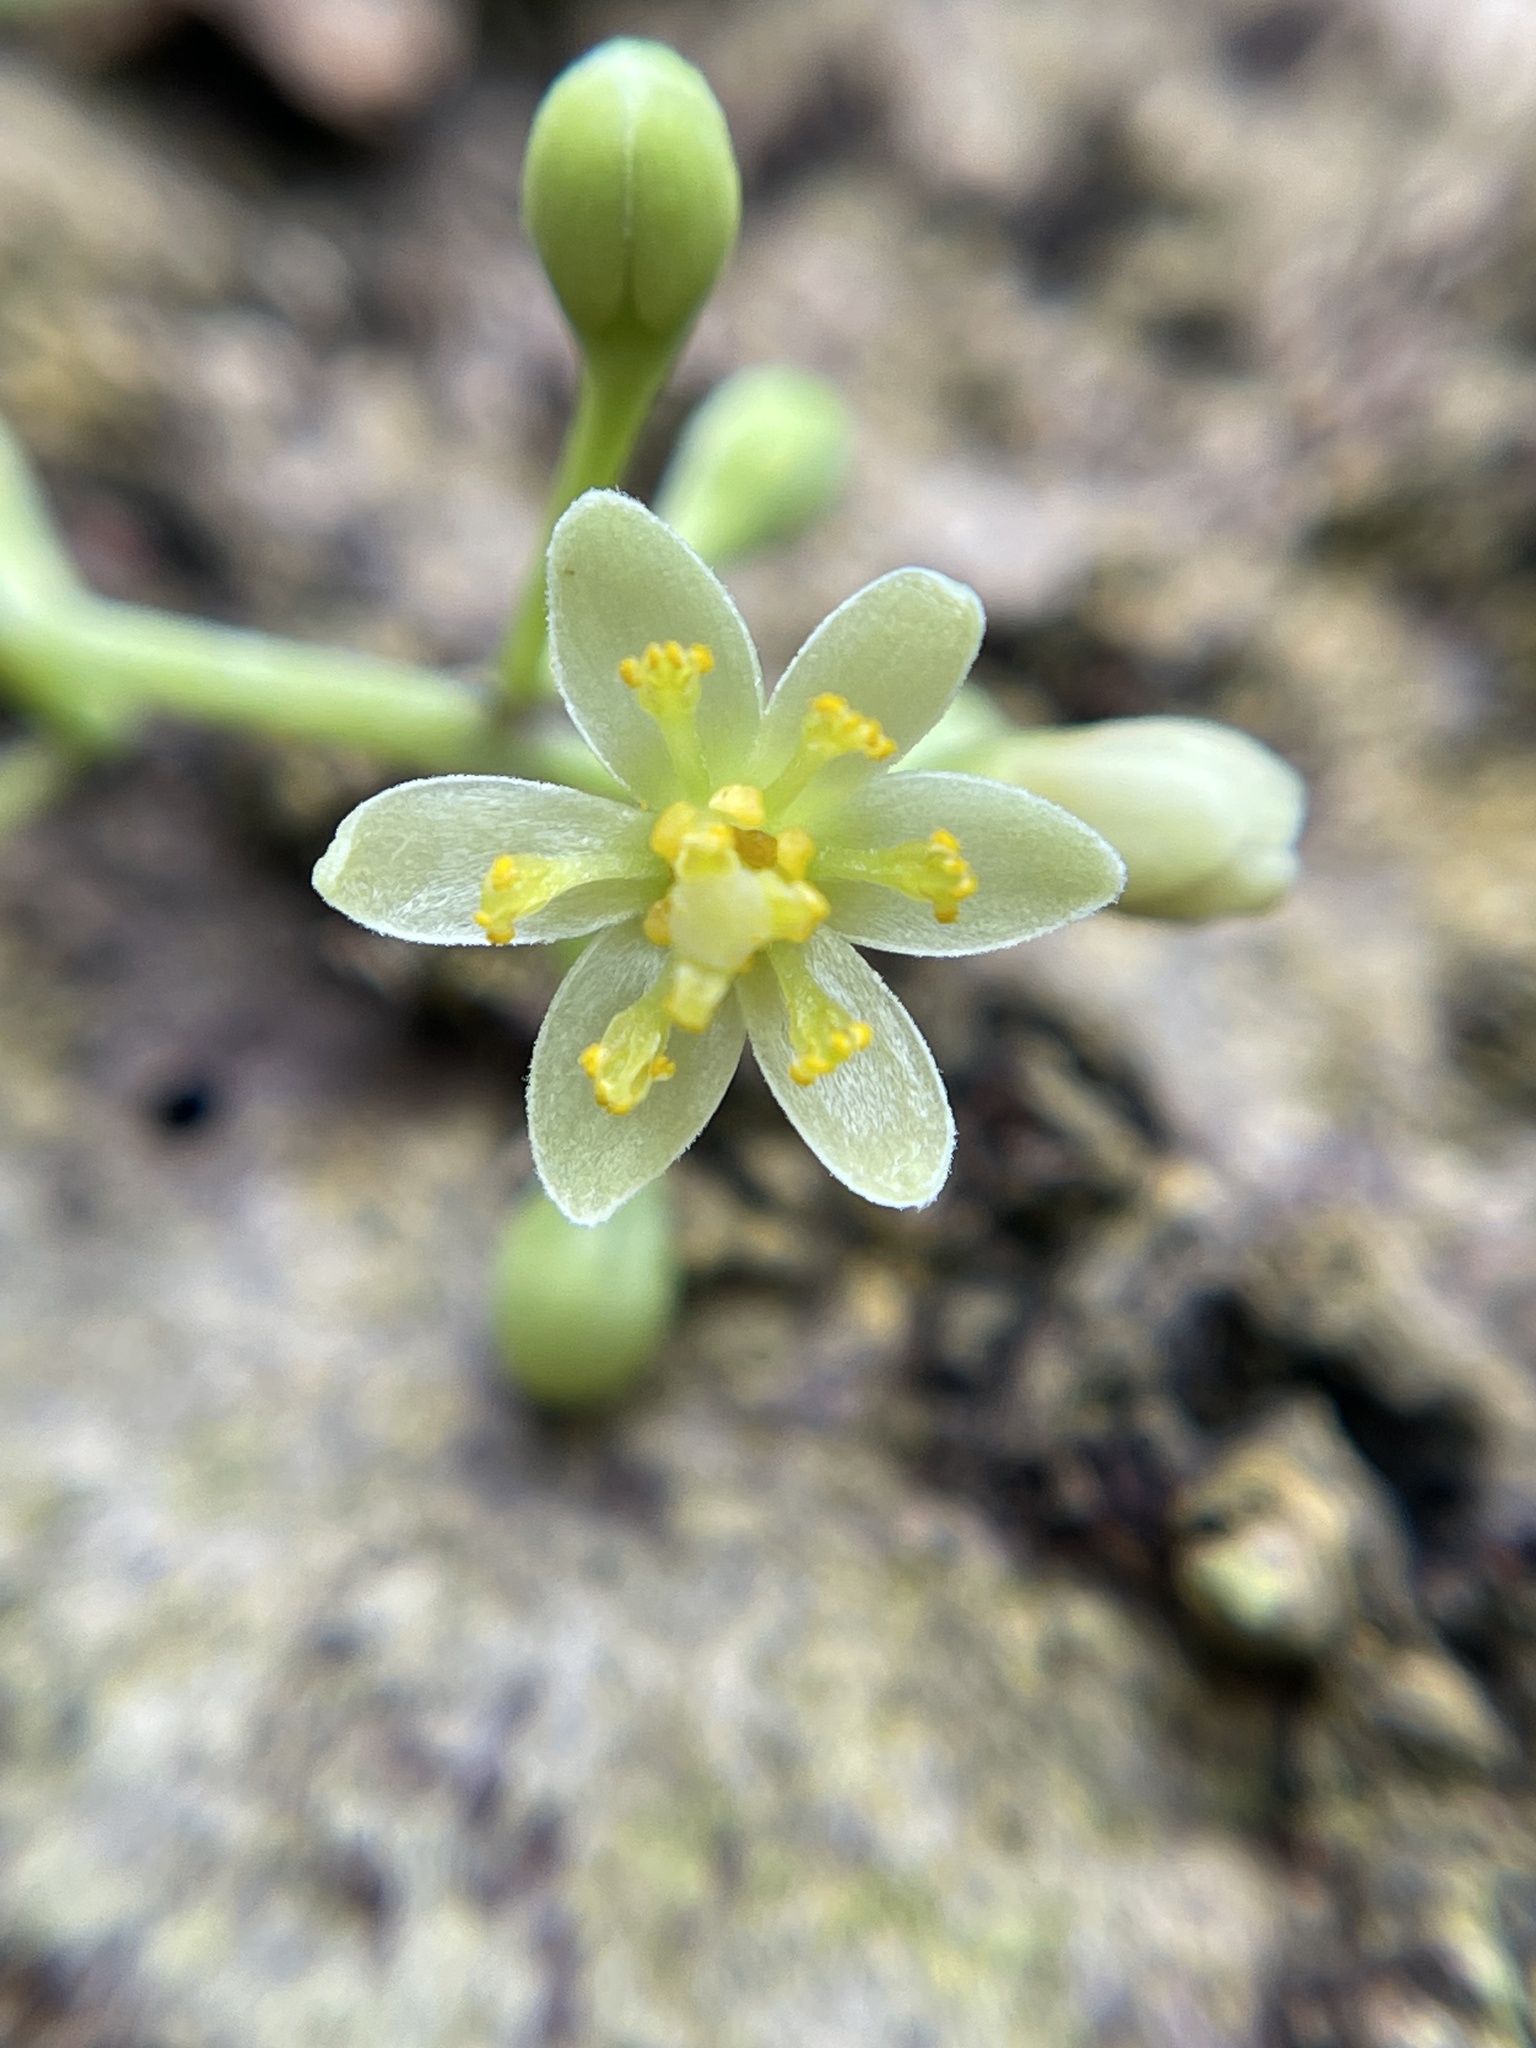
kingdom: Plantae
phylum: Tracheophyta
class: Magnoliopsida
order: Laurales
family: Lauraceae
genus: Cinnamomum
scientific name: Cinnamomum burmanni
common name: Padang cassia
